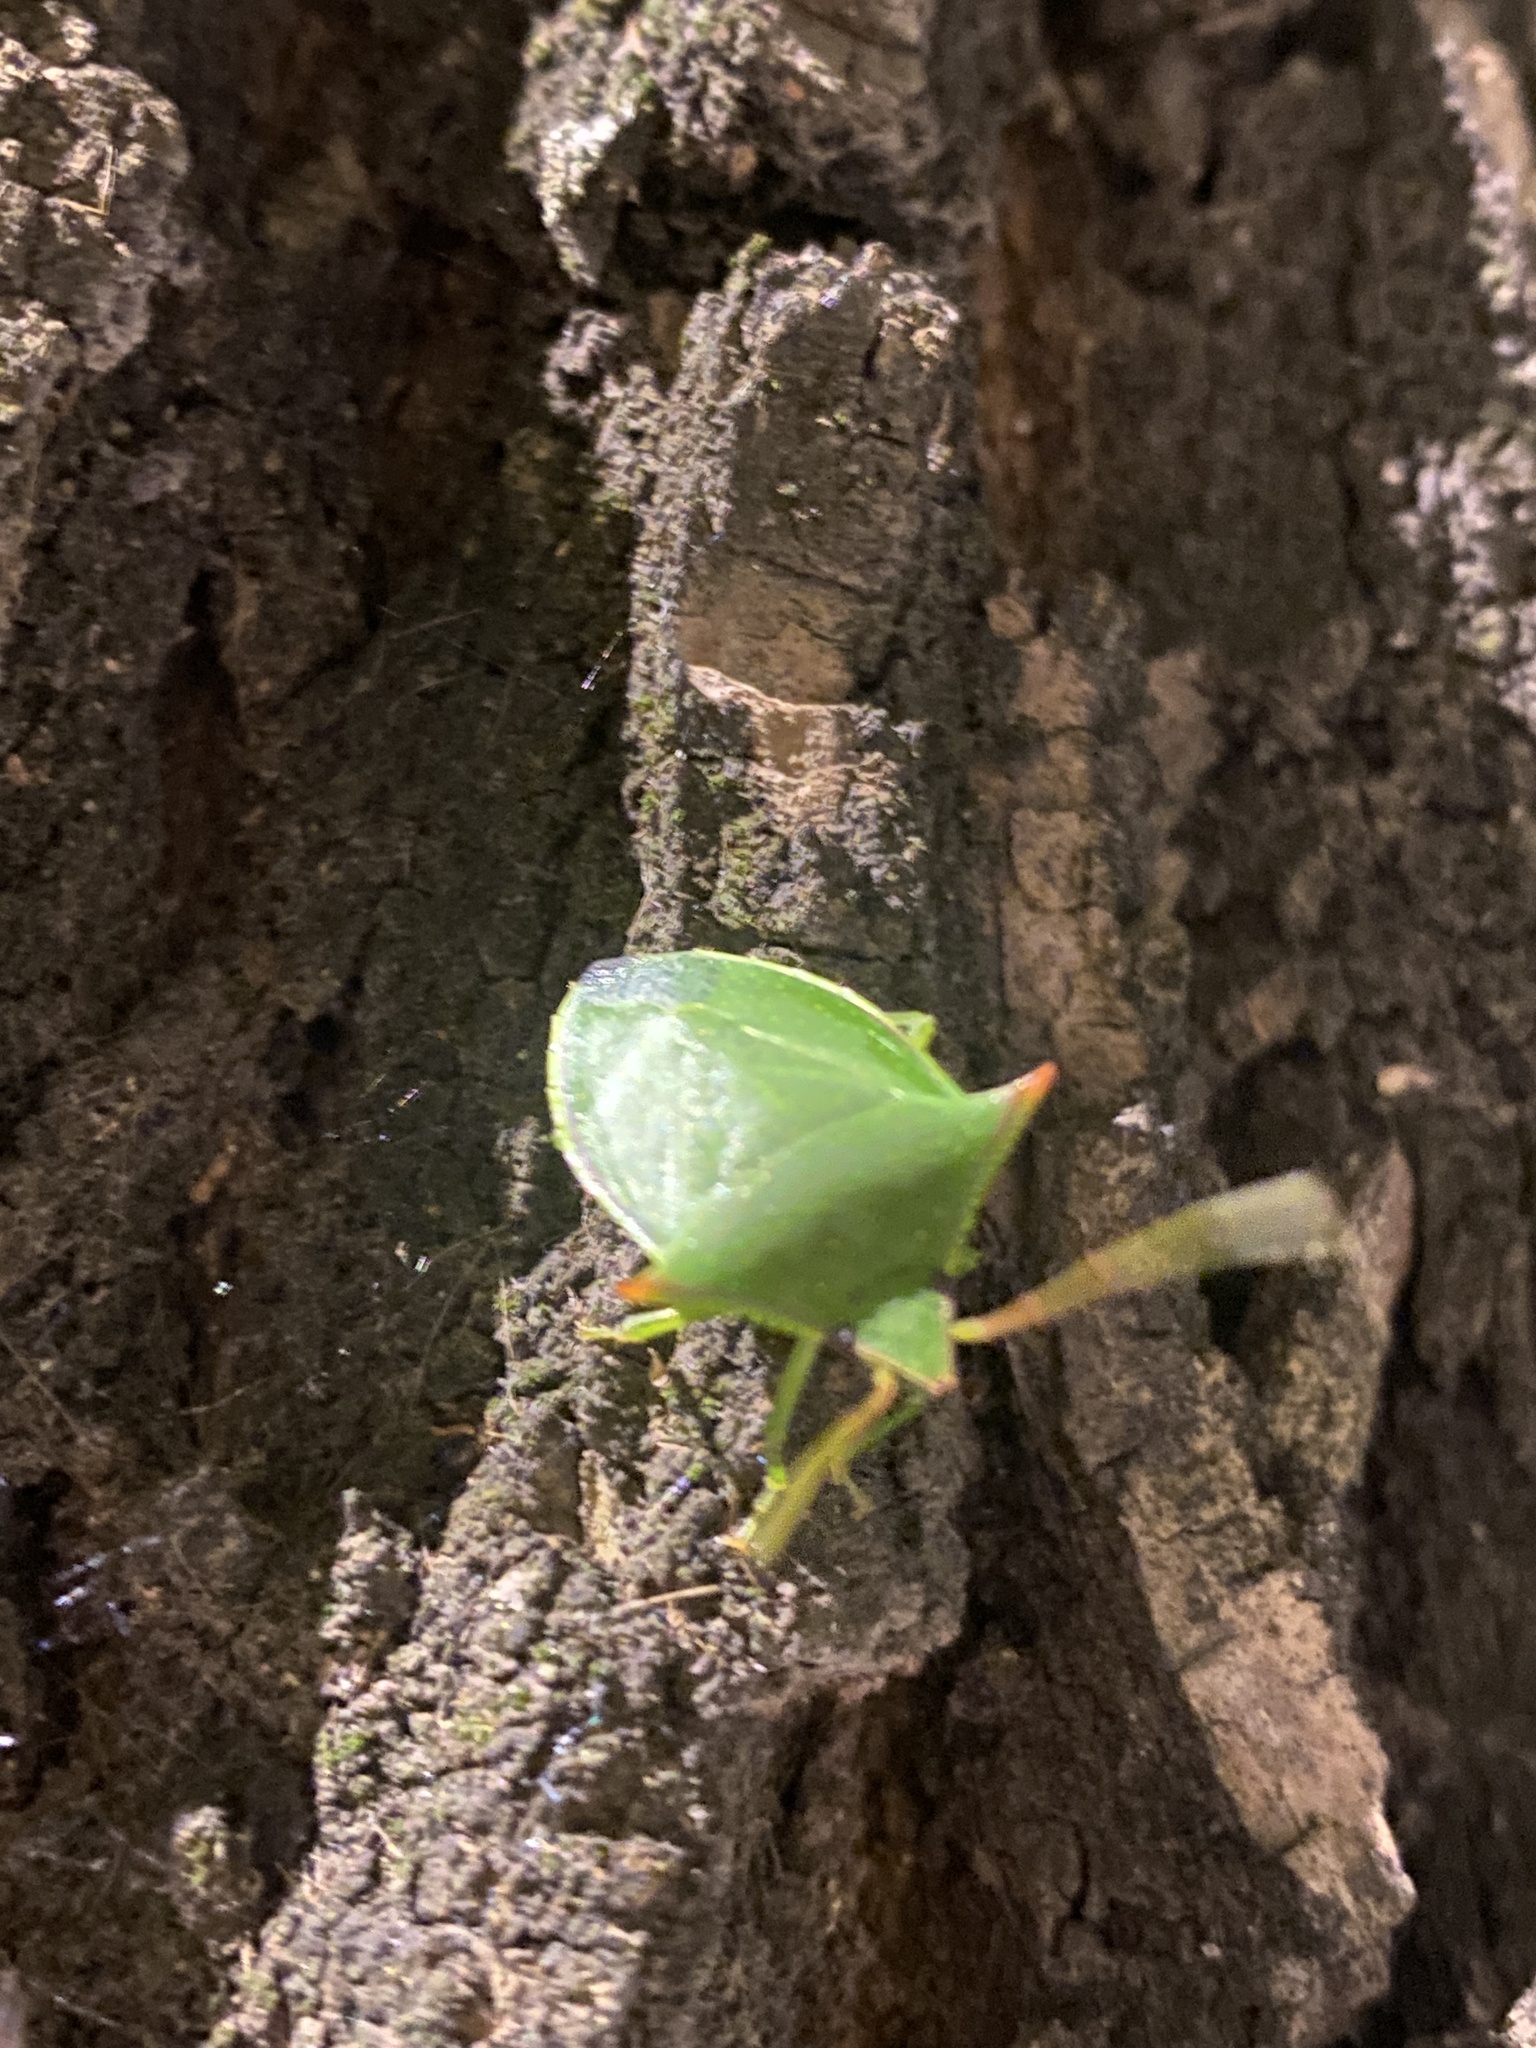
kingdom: Animalia
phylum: Arthropoda
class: Insecta
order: Hemiptera
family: Pentatomidae
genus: Loxa
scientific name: Loxa deducta
